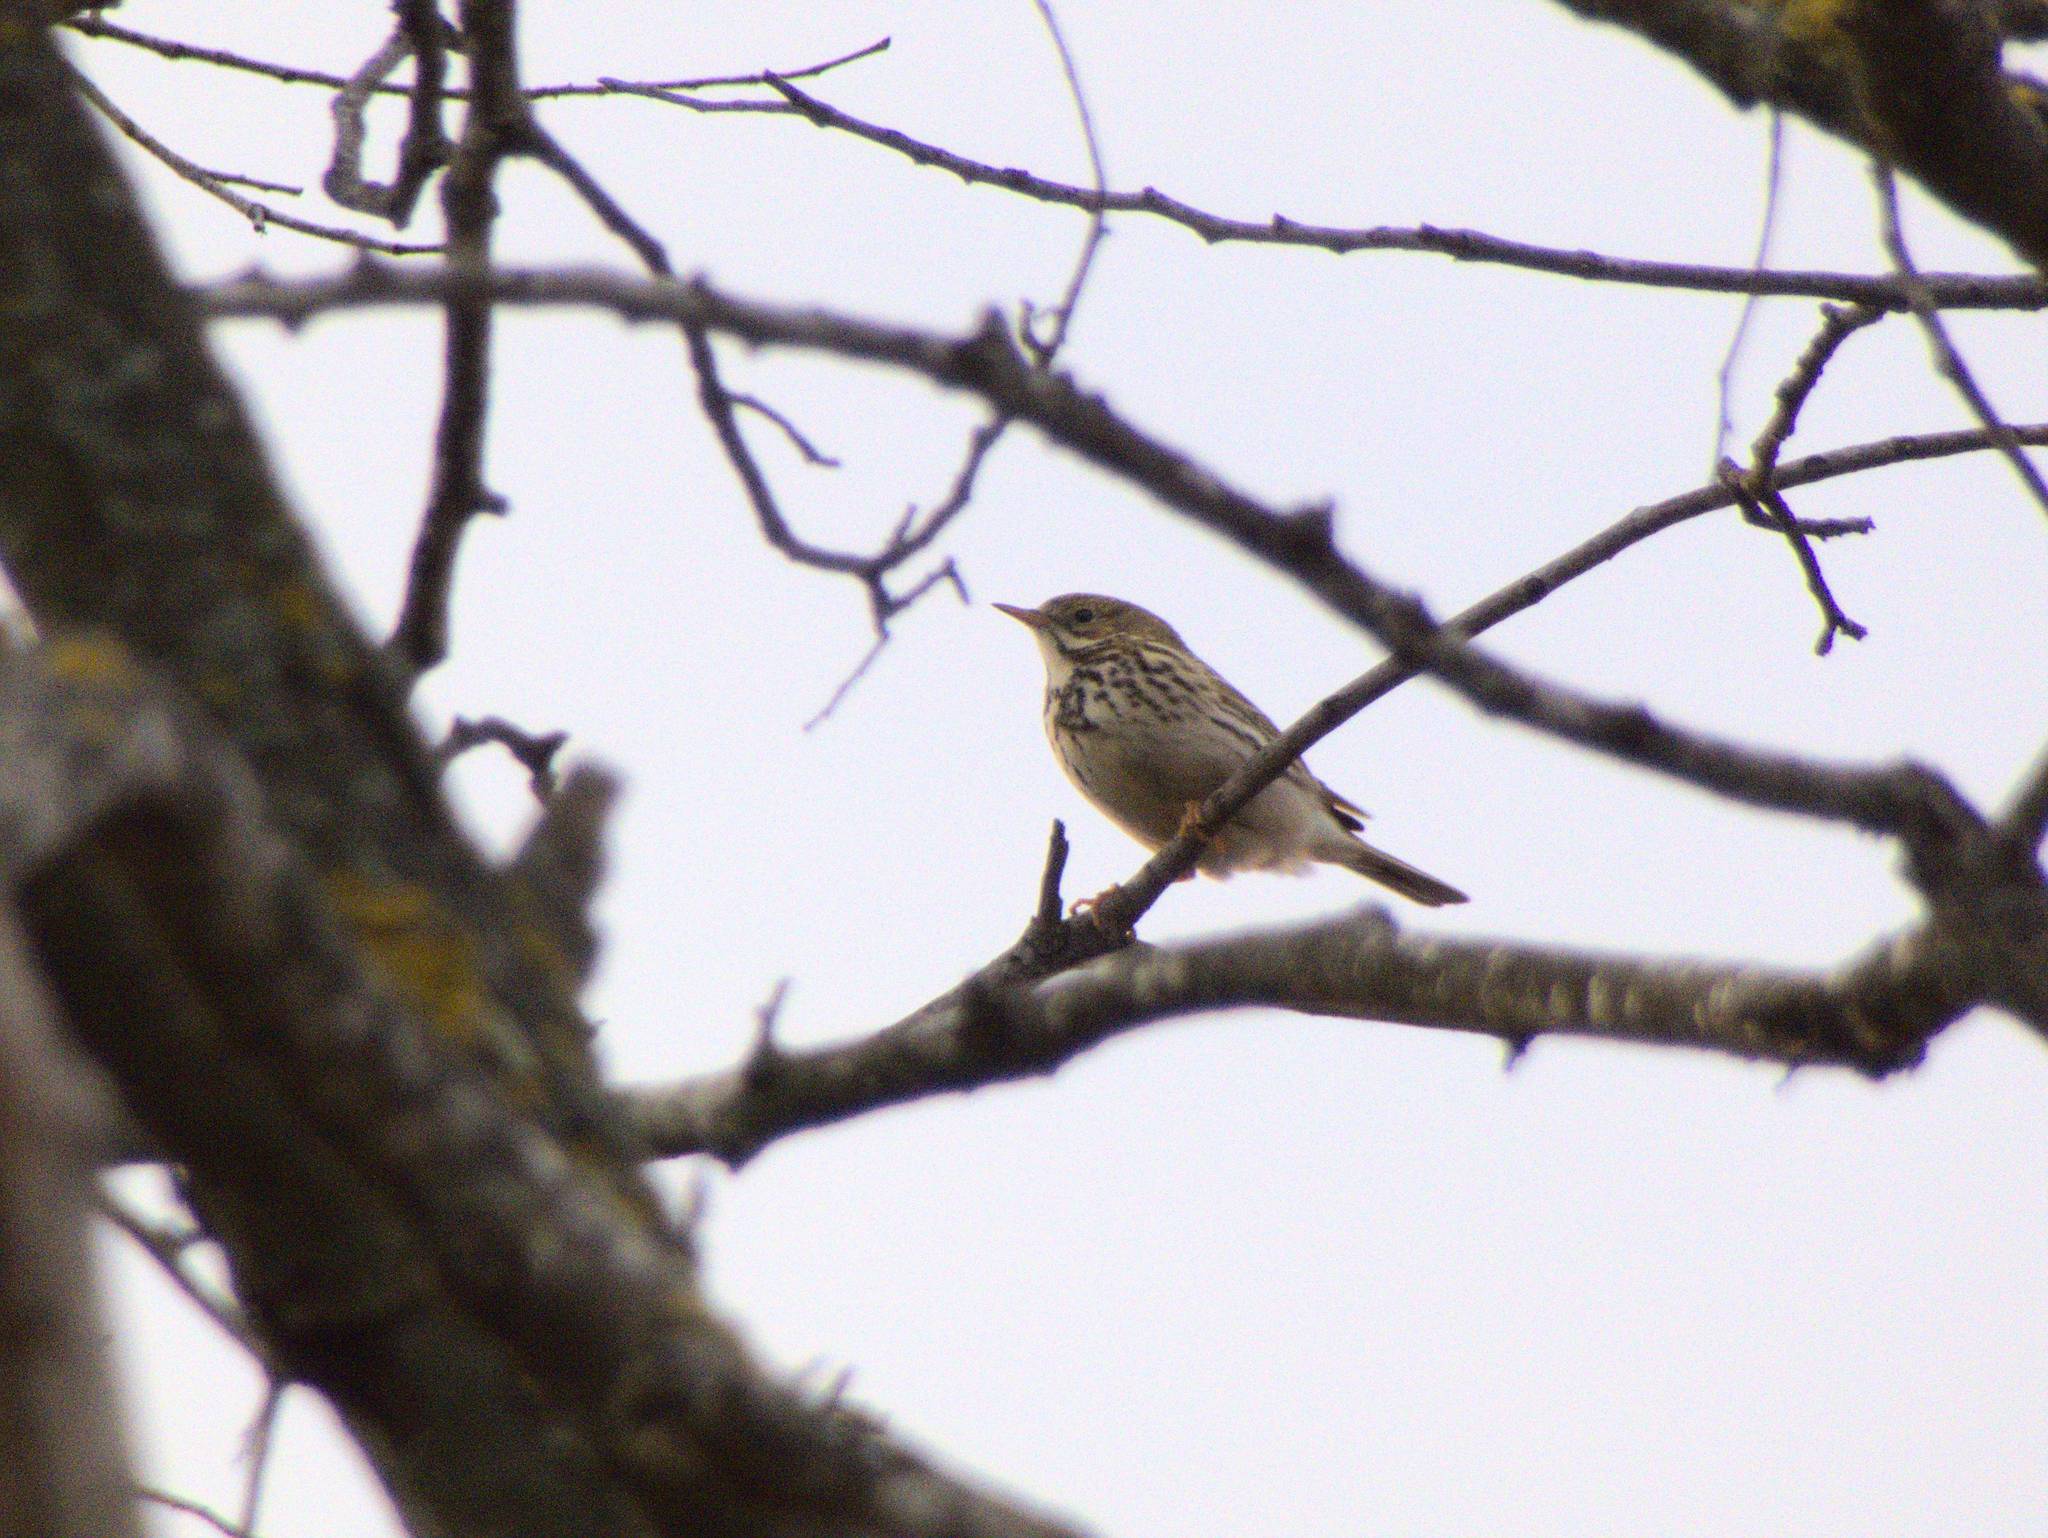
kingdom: Animalia
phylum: Chordata
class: Aves
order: Passeriformes
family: Motacillidae
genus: Anthus
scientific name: Anthus pratensis
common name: Meadow pipit
